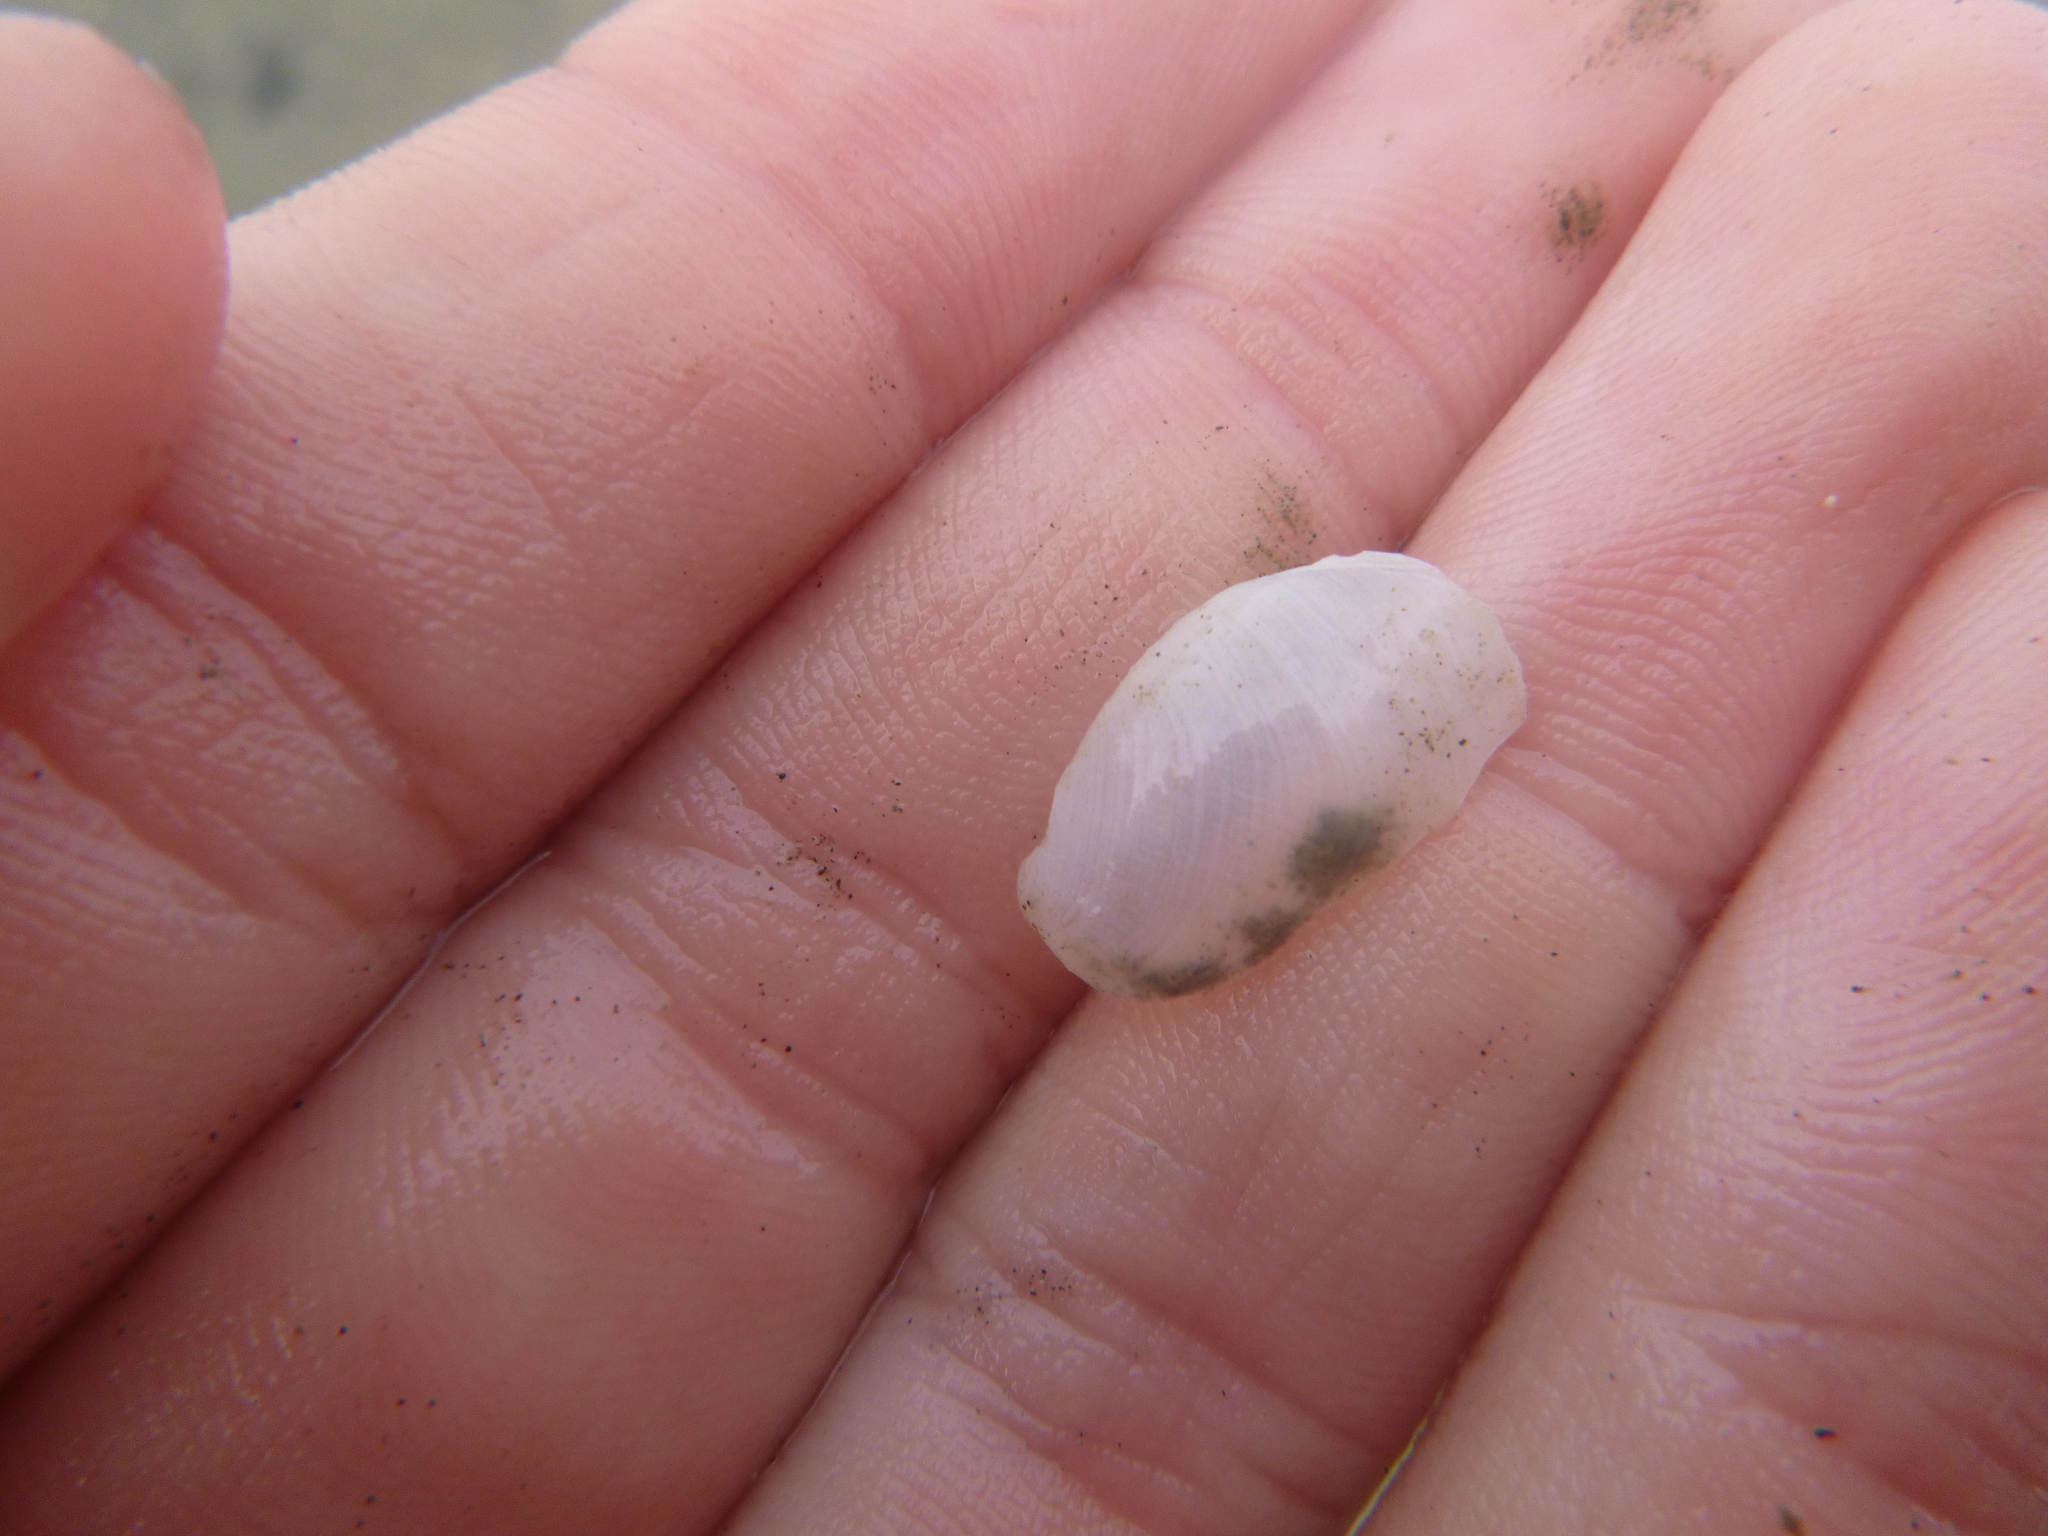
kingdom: Animalia
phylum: Mollusca
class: Gastropoda
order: Cephalaspidea
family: Philinidae
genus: Philine
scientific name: Philine auriformis
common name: Sea snail
